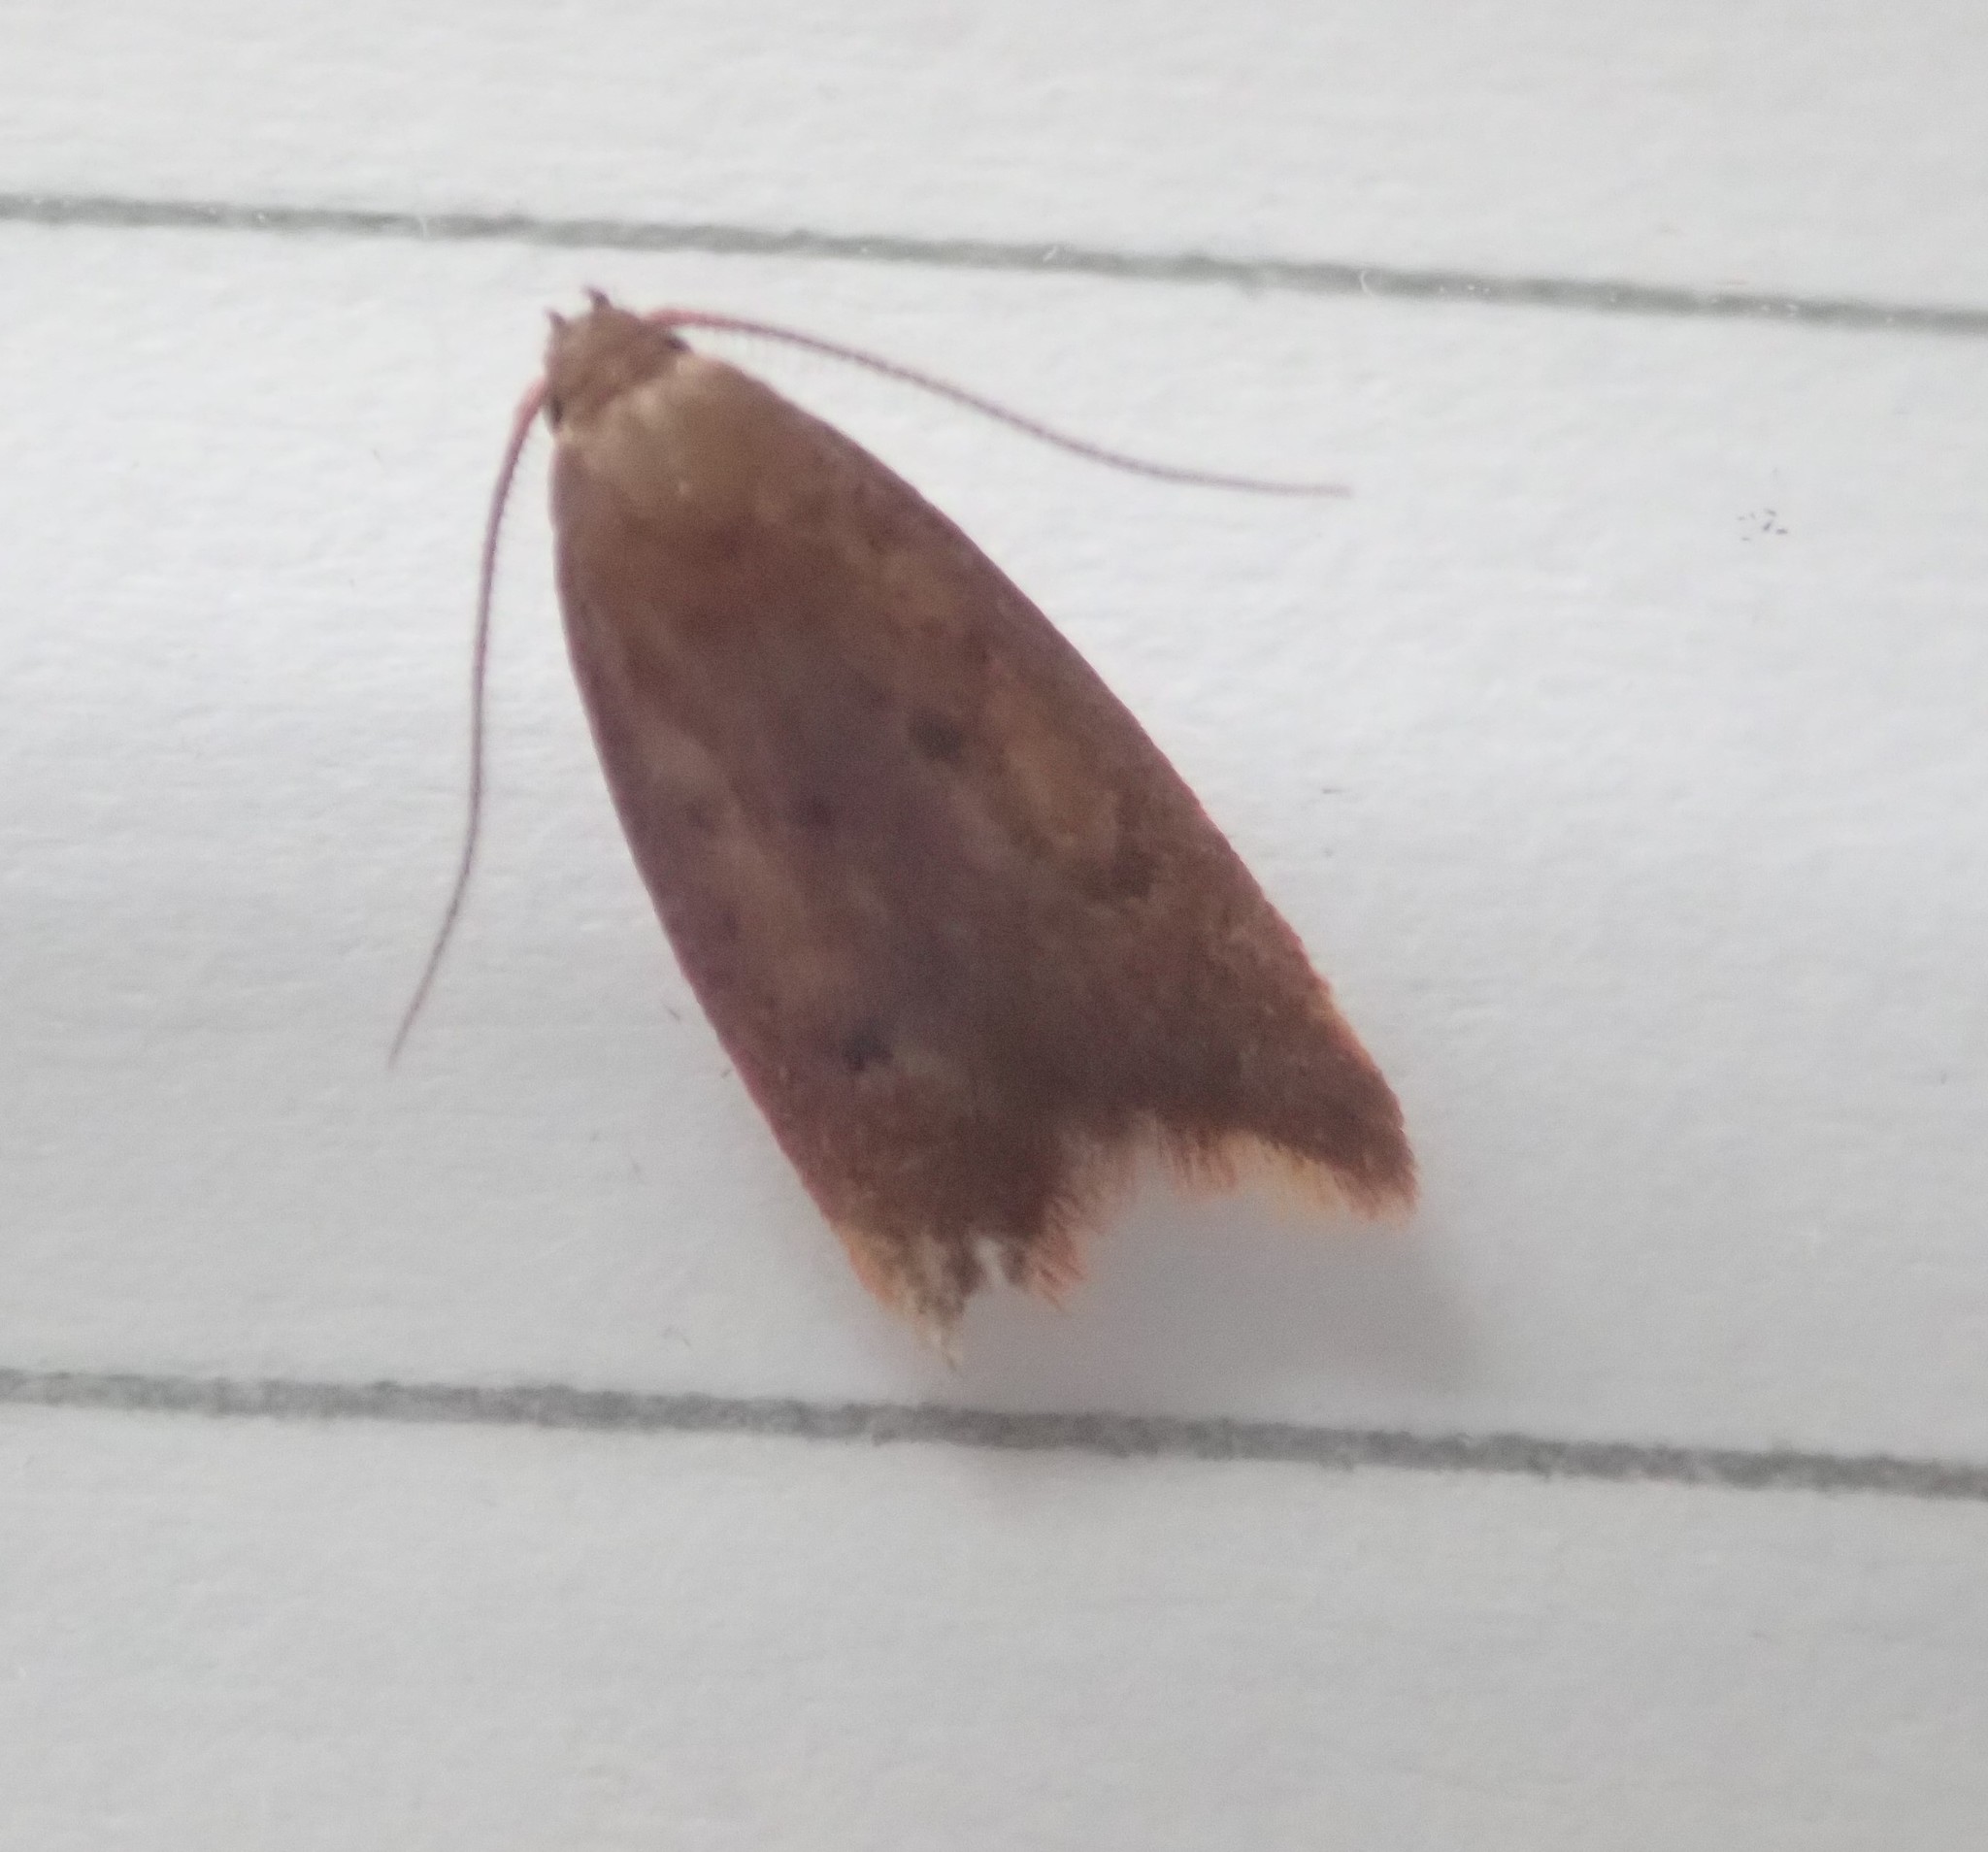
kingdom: Animalia
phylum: Arthropoda
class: Insecta
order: Lepidoptera
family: Oecophoridae
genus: Tachystola
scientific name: Tachystola acroxantha
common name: Ruddy streak
